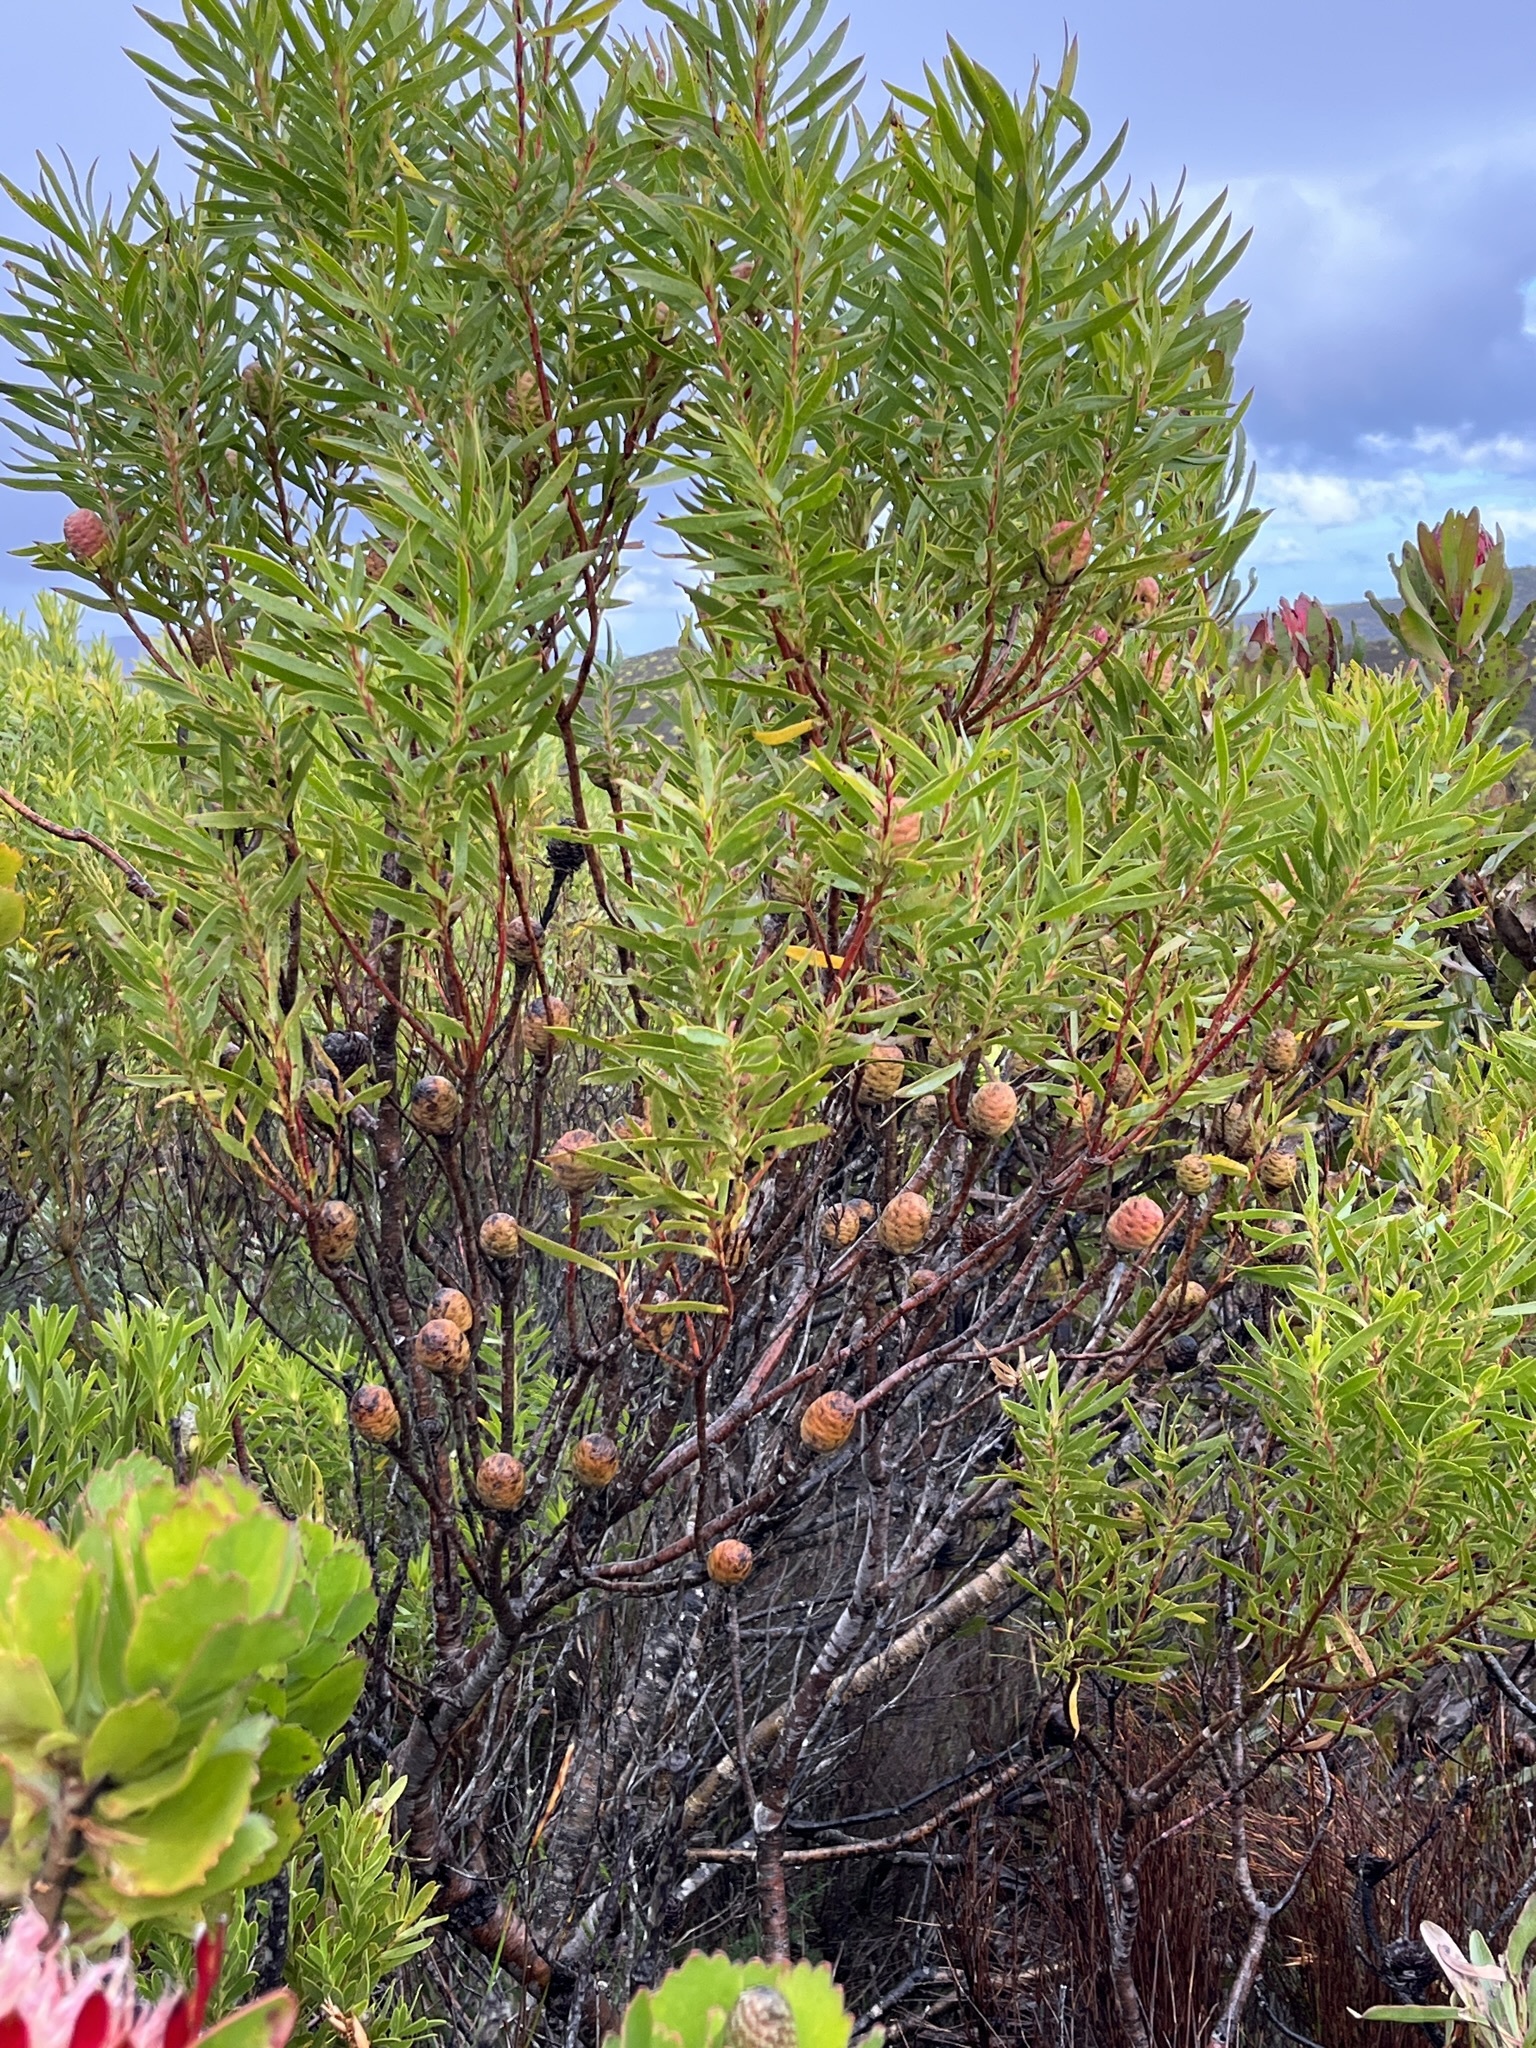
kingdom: Plantae
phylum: Tracheophyta
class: Magnoliopsida
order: Proteales
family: Proteaceae
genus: Leucadendron
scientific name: Leucadendron coniferum
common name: Dune conebush
